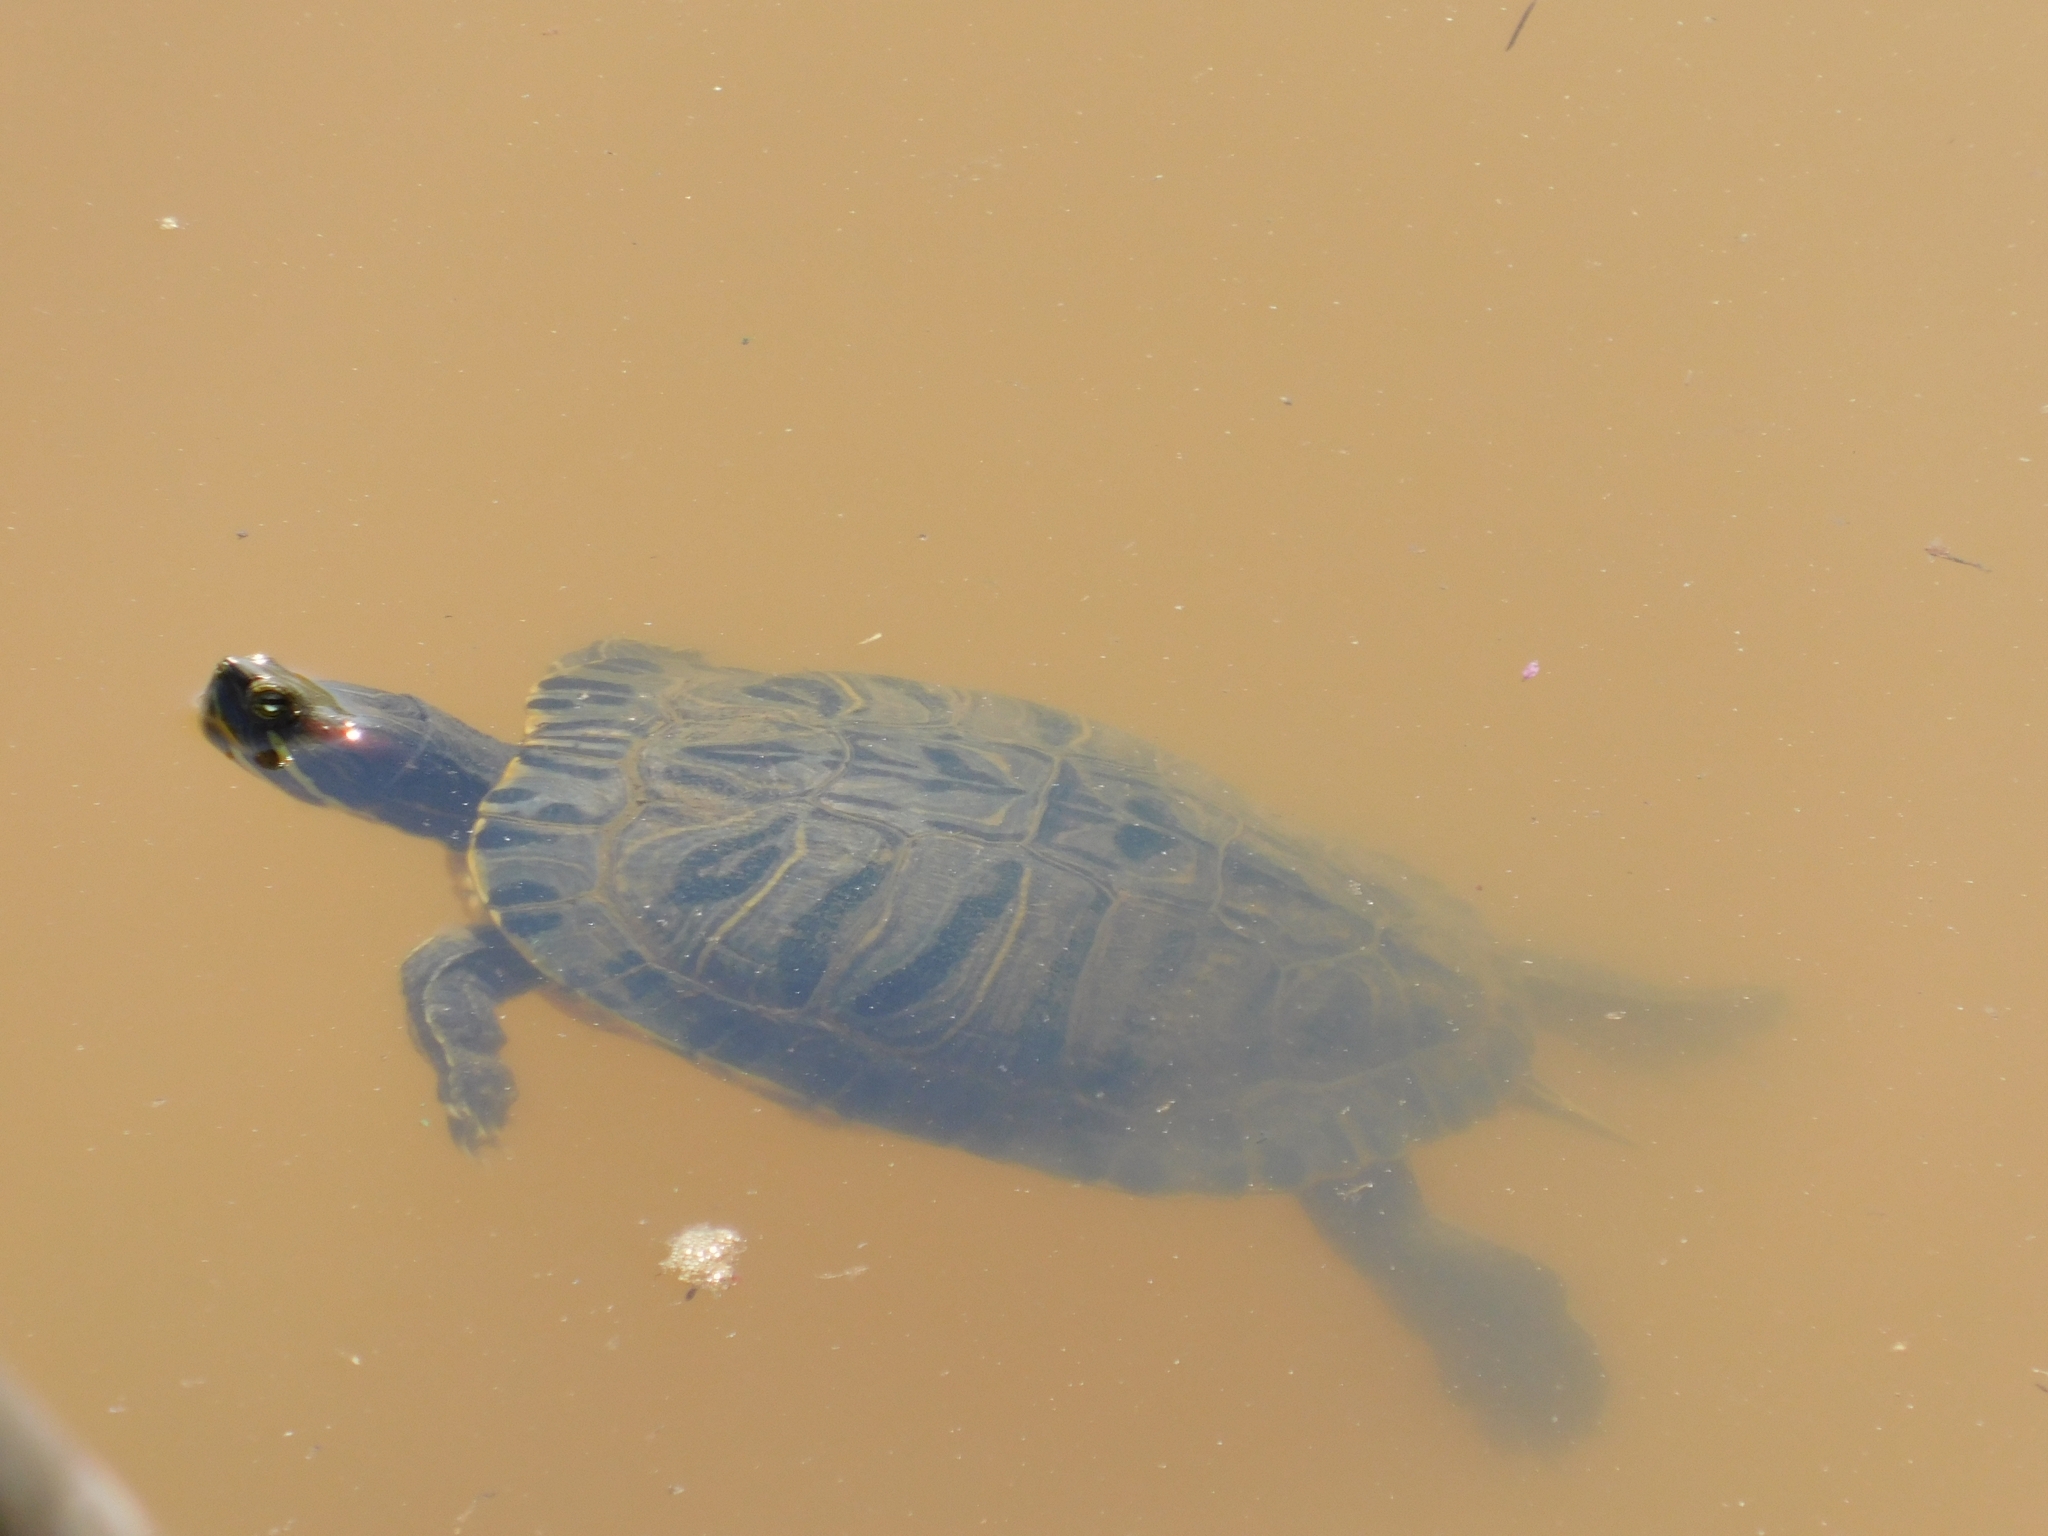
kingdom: Animalia
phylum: Chordata
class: Testudines
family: Emydidae
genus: Trachemys
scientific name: Trachemys scripta
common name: Slider
